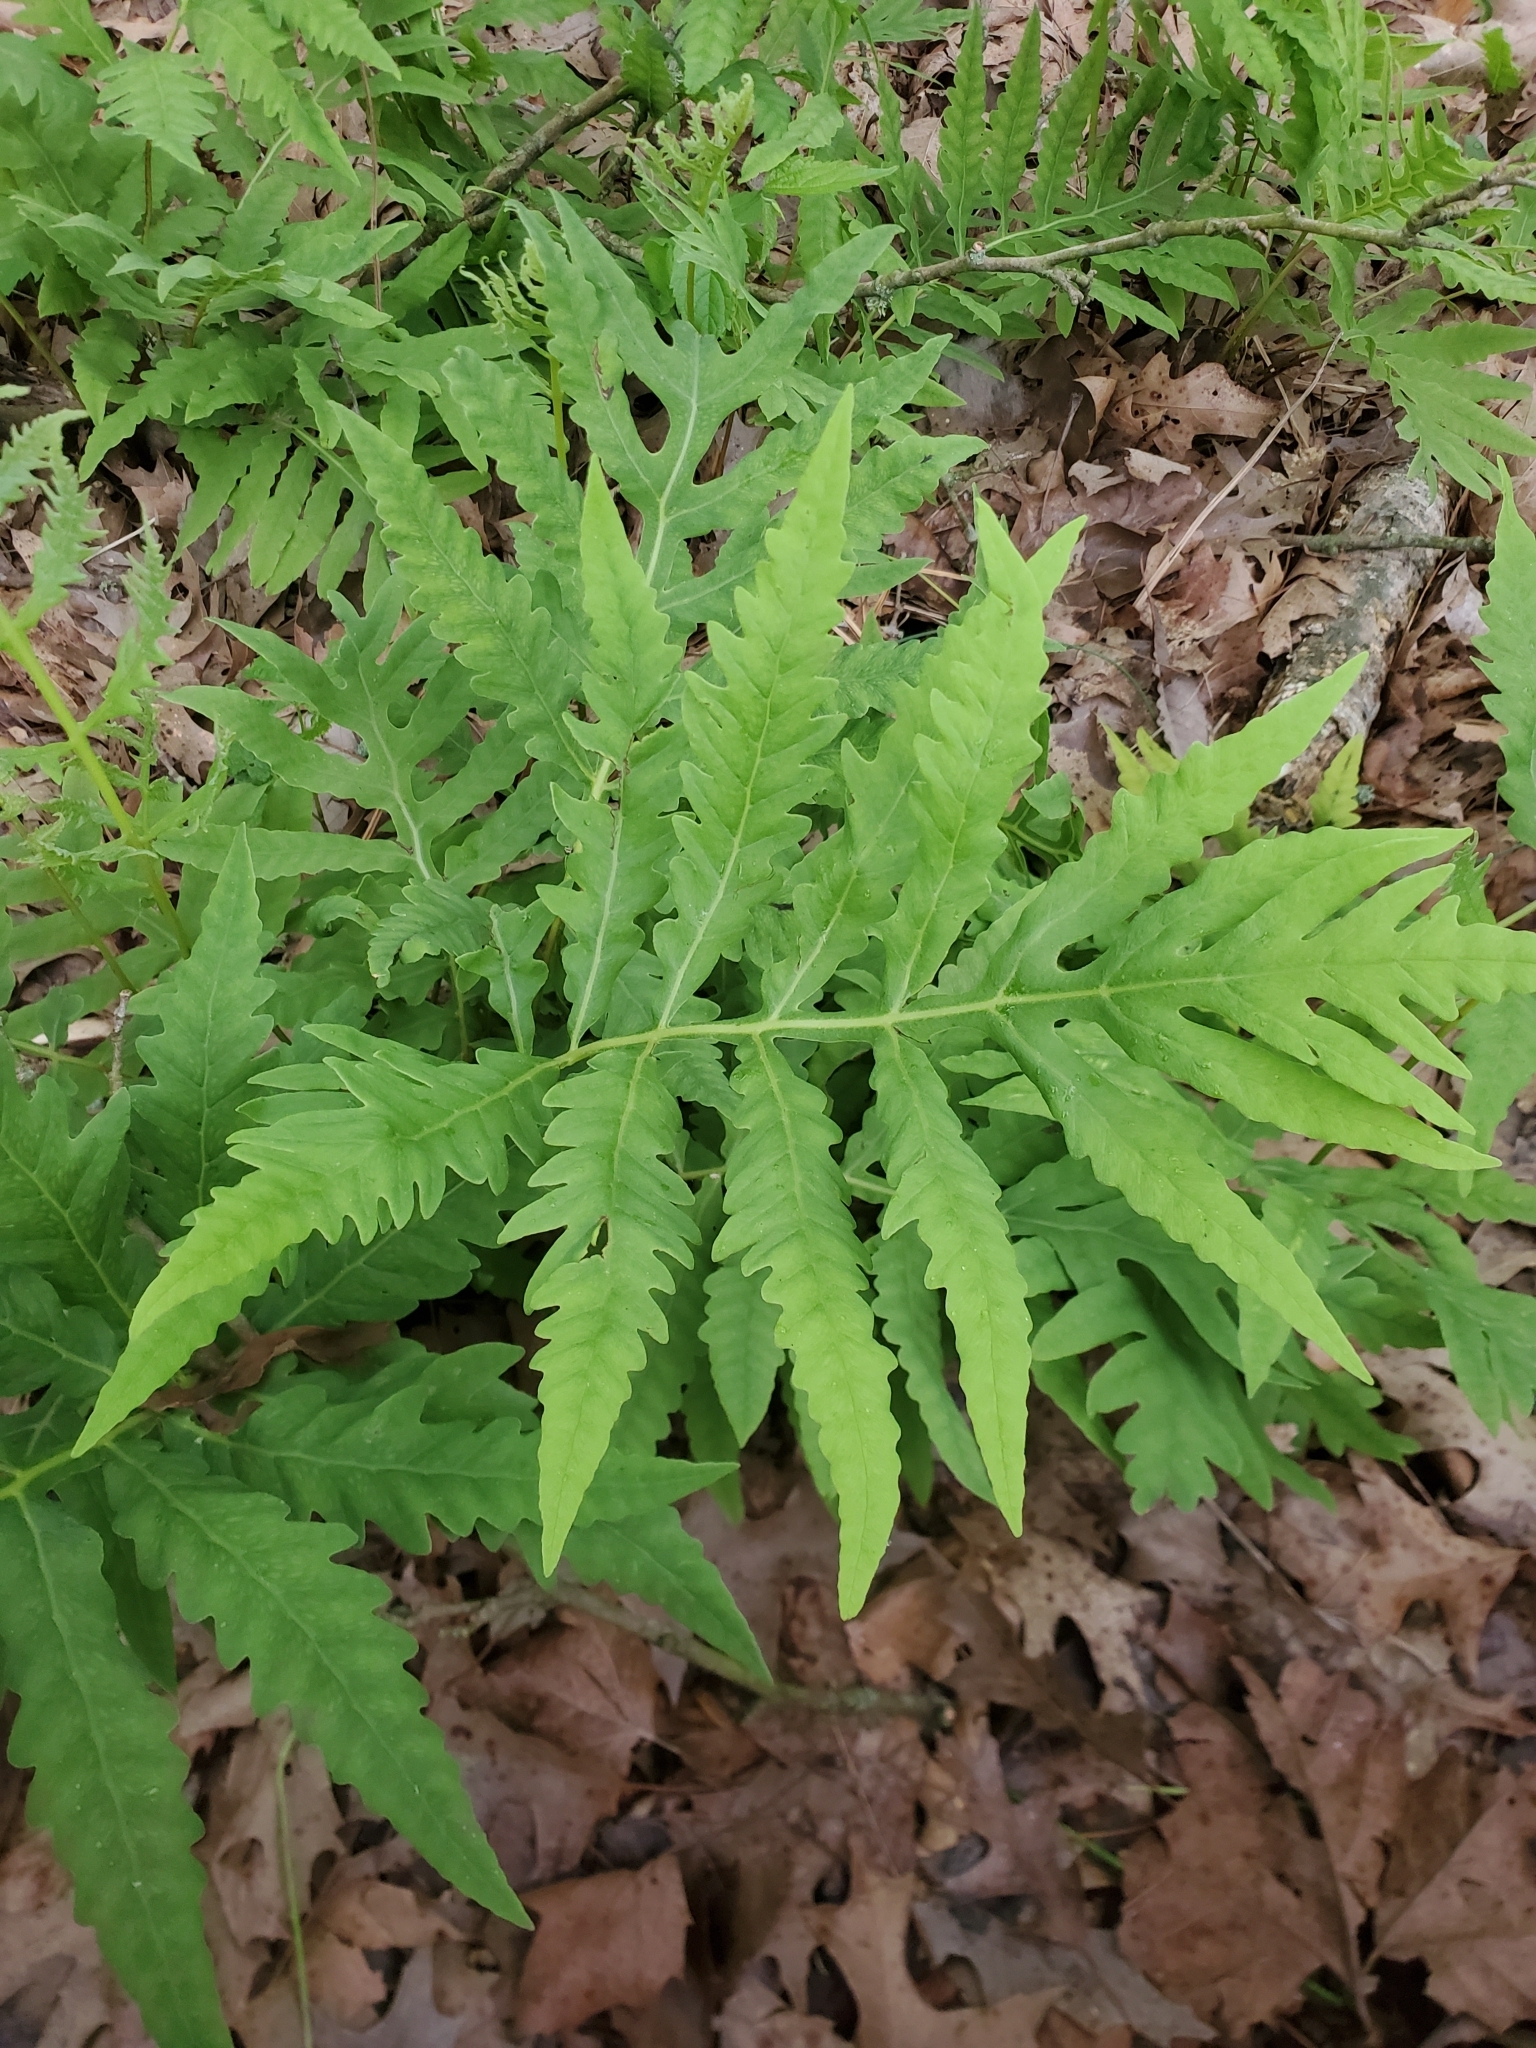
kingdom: Plantae
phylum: Tracheophyta
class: Polypodiopsida
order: Polypodiales
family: Onocleaceae
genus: Onoclea
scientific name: Onoclea sensibilis
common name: Sensitive fern
